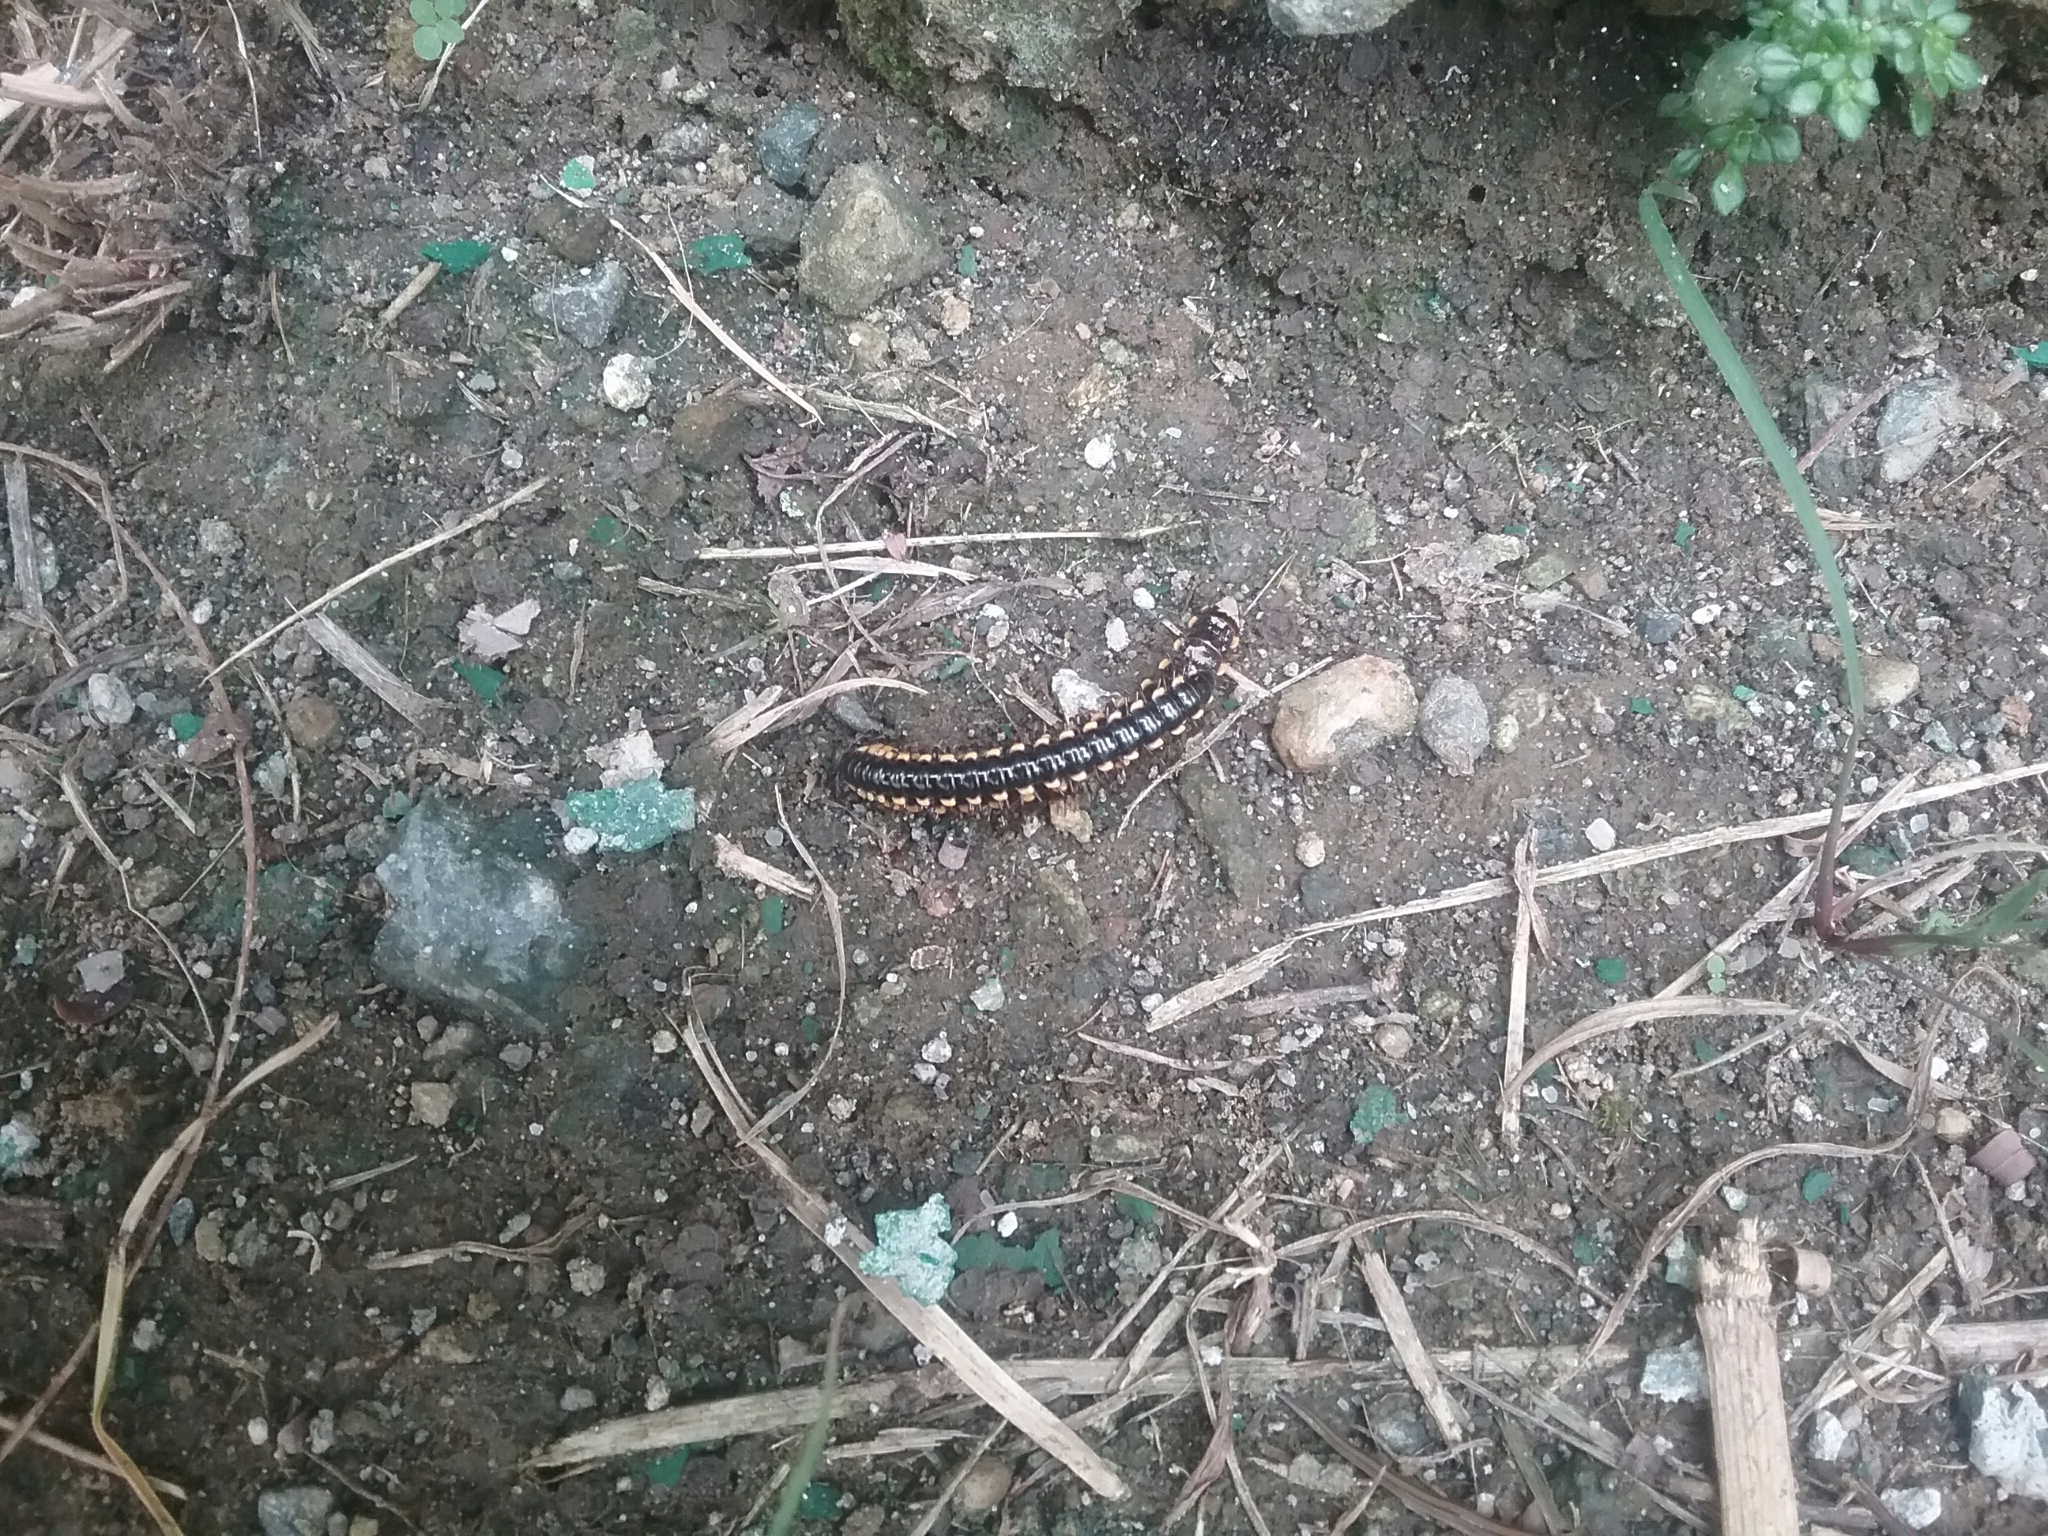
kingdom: Animalia
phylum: Arthropoda
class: Diplopoda
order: Polydesmida
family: Paradoxosomatidae
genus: Orthomorpha
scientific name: Orthomorpha coarctata
